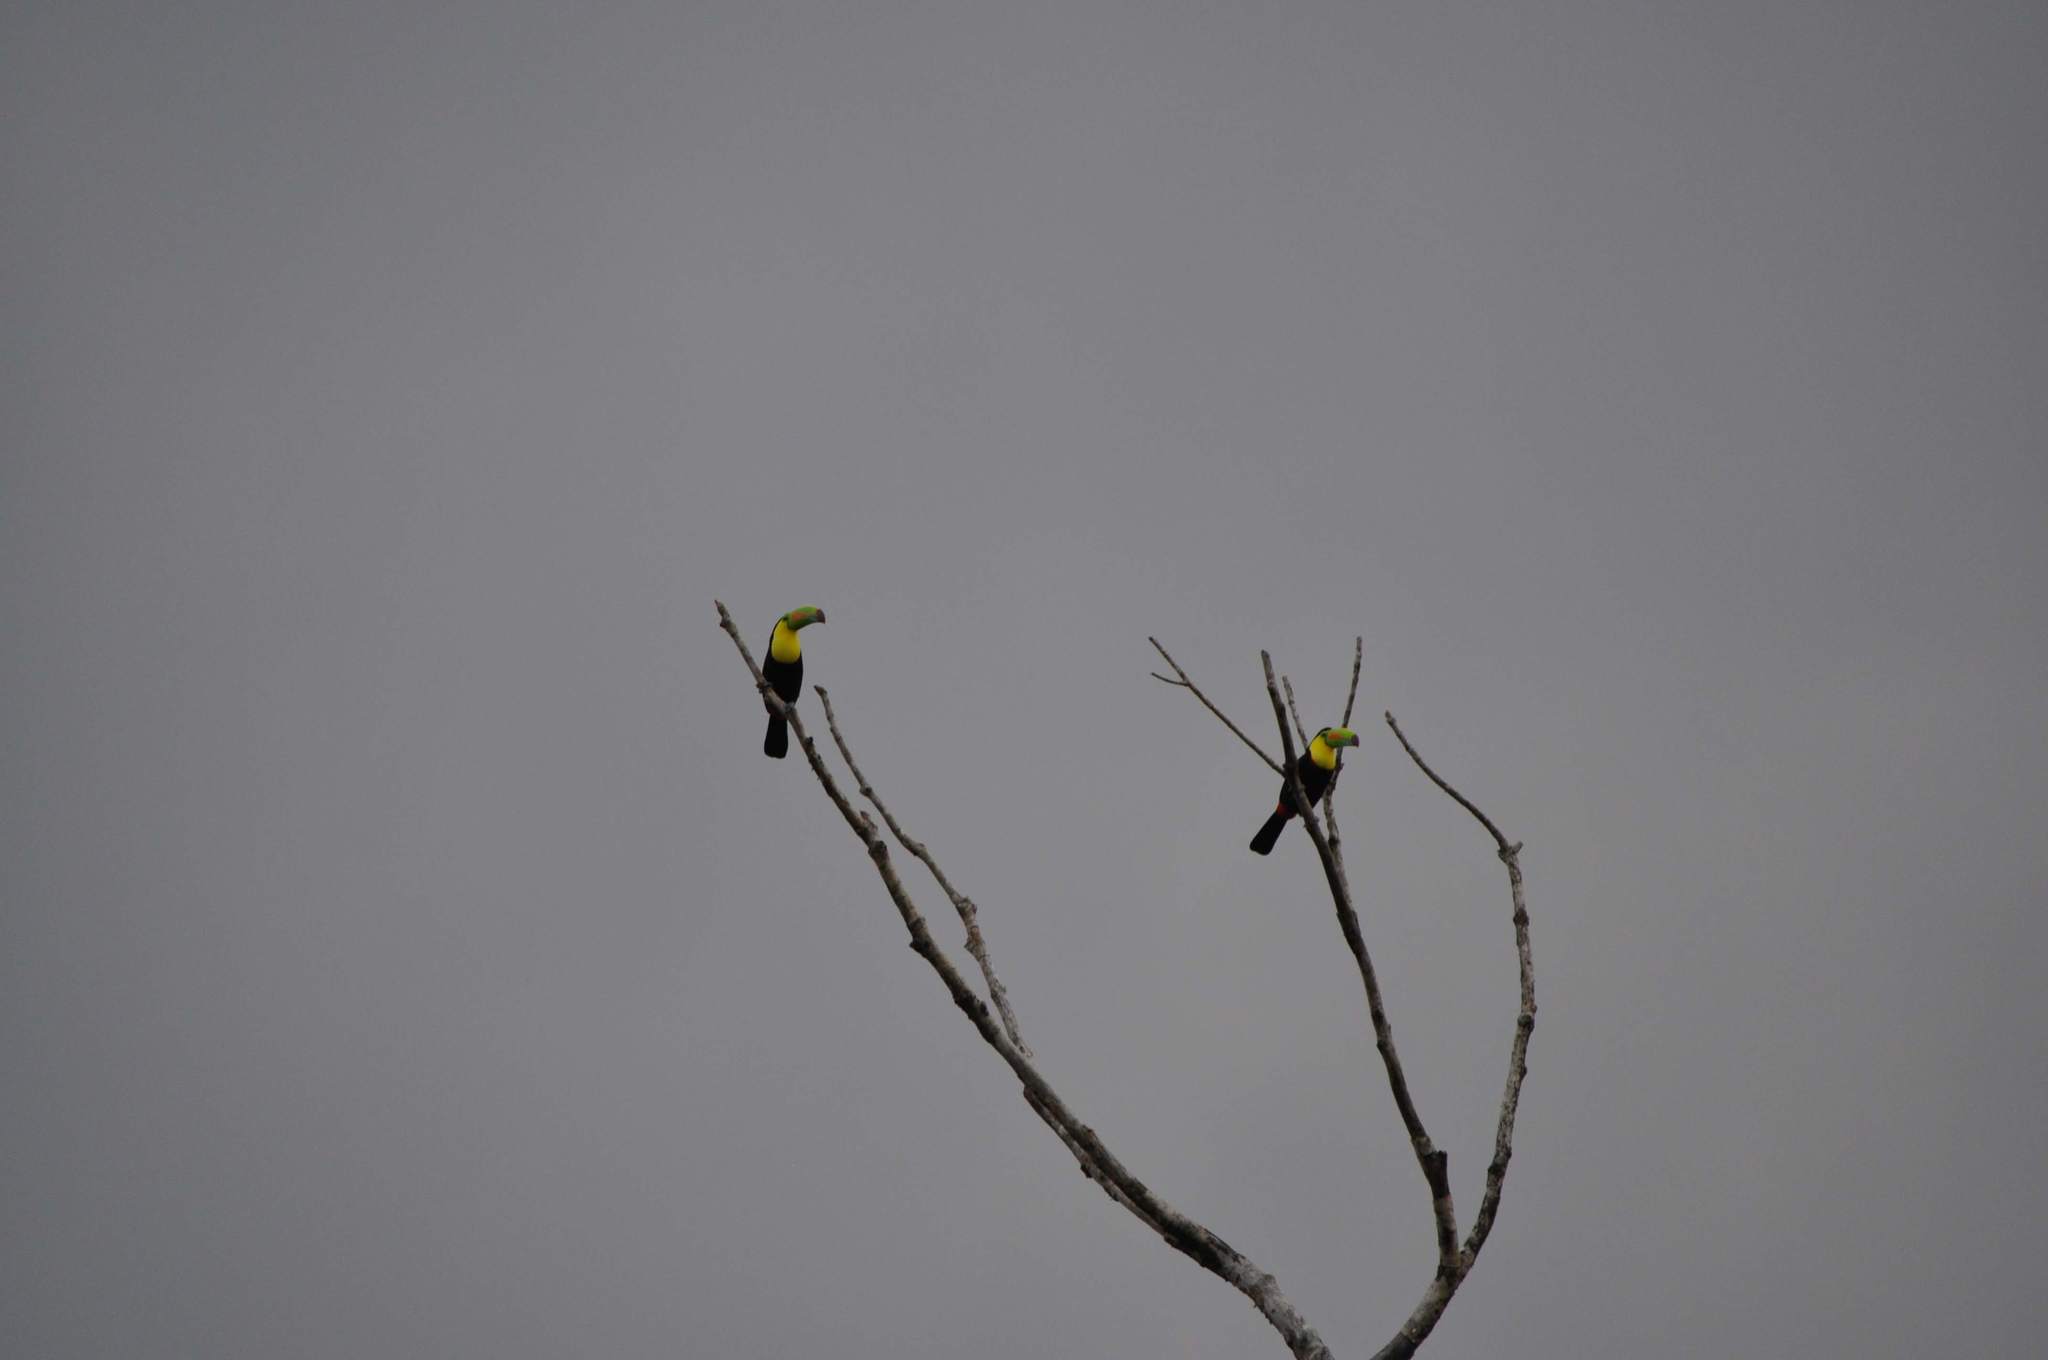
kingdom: Animalia
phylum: Chordata
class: Aves
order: Piciformes
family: Ramphastidae
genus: Ramphastos
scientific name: Ramphastos sulfuratus
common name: Keel-billed toucan
